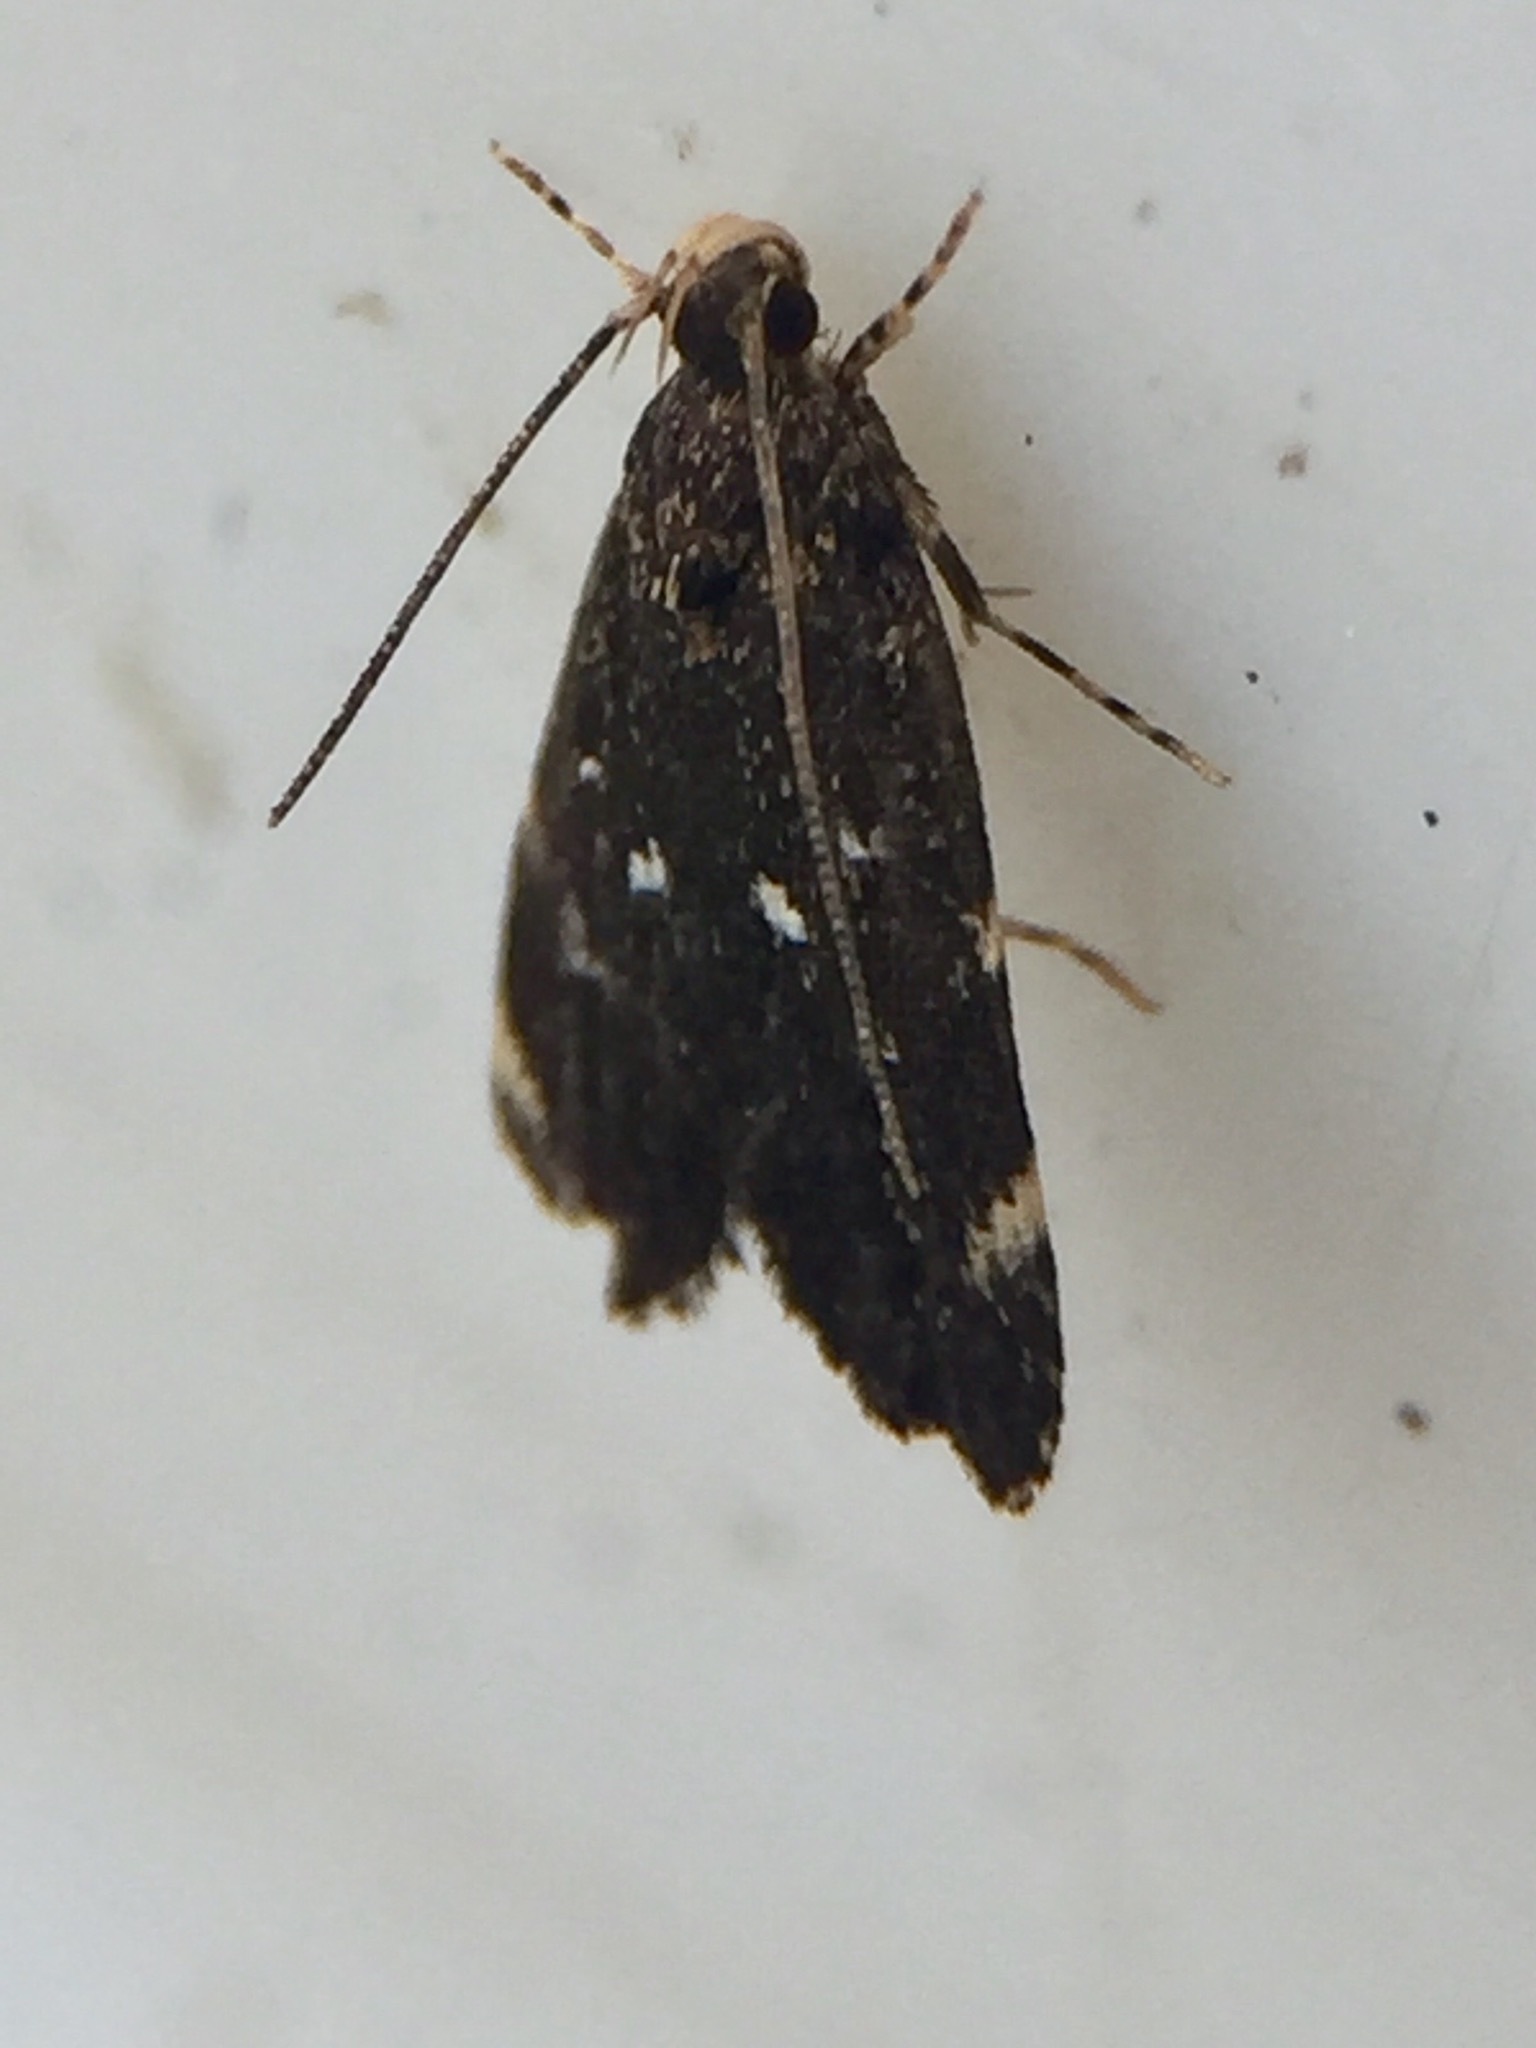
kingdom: Animalia
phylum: Arthropoda
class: Insecta
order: Lepidoptera
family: Oecophoridae
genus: Lathicrossa
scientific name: Lathicrossa leucocentra
